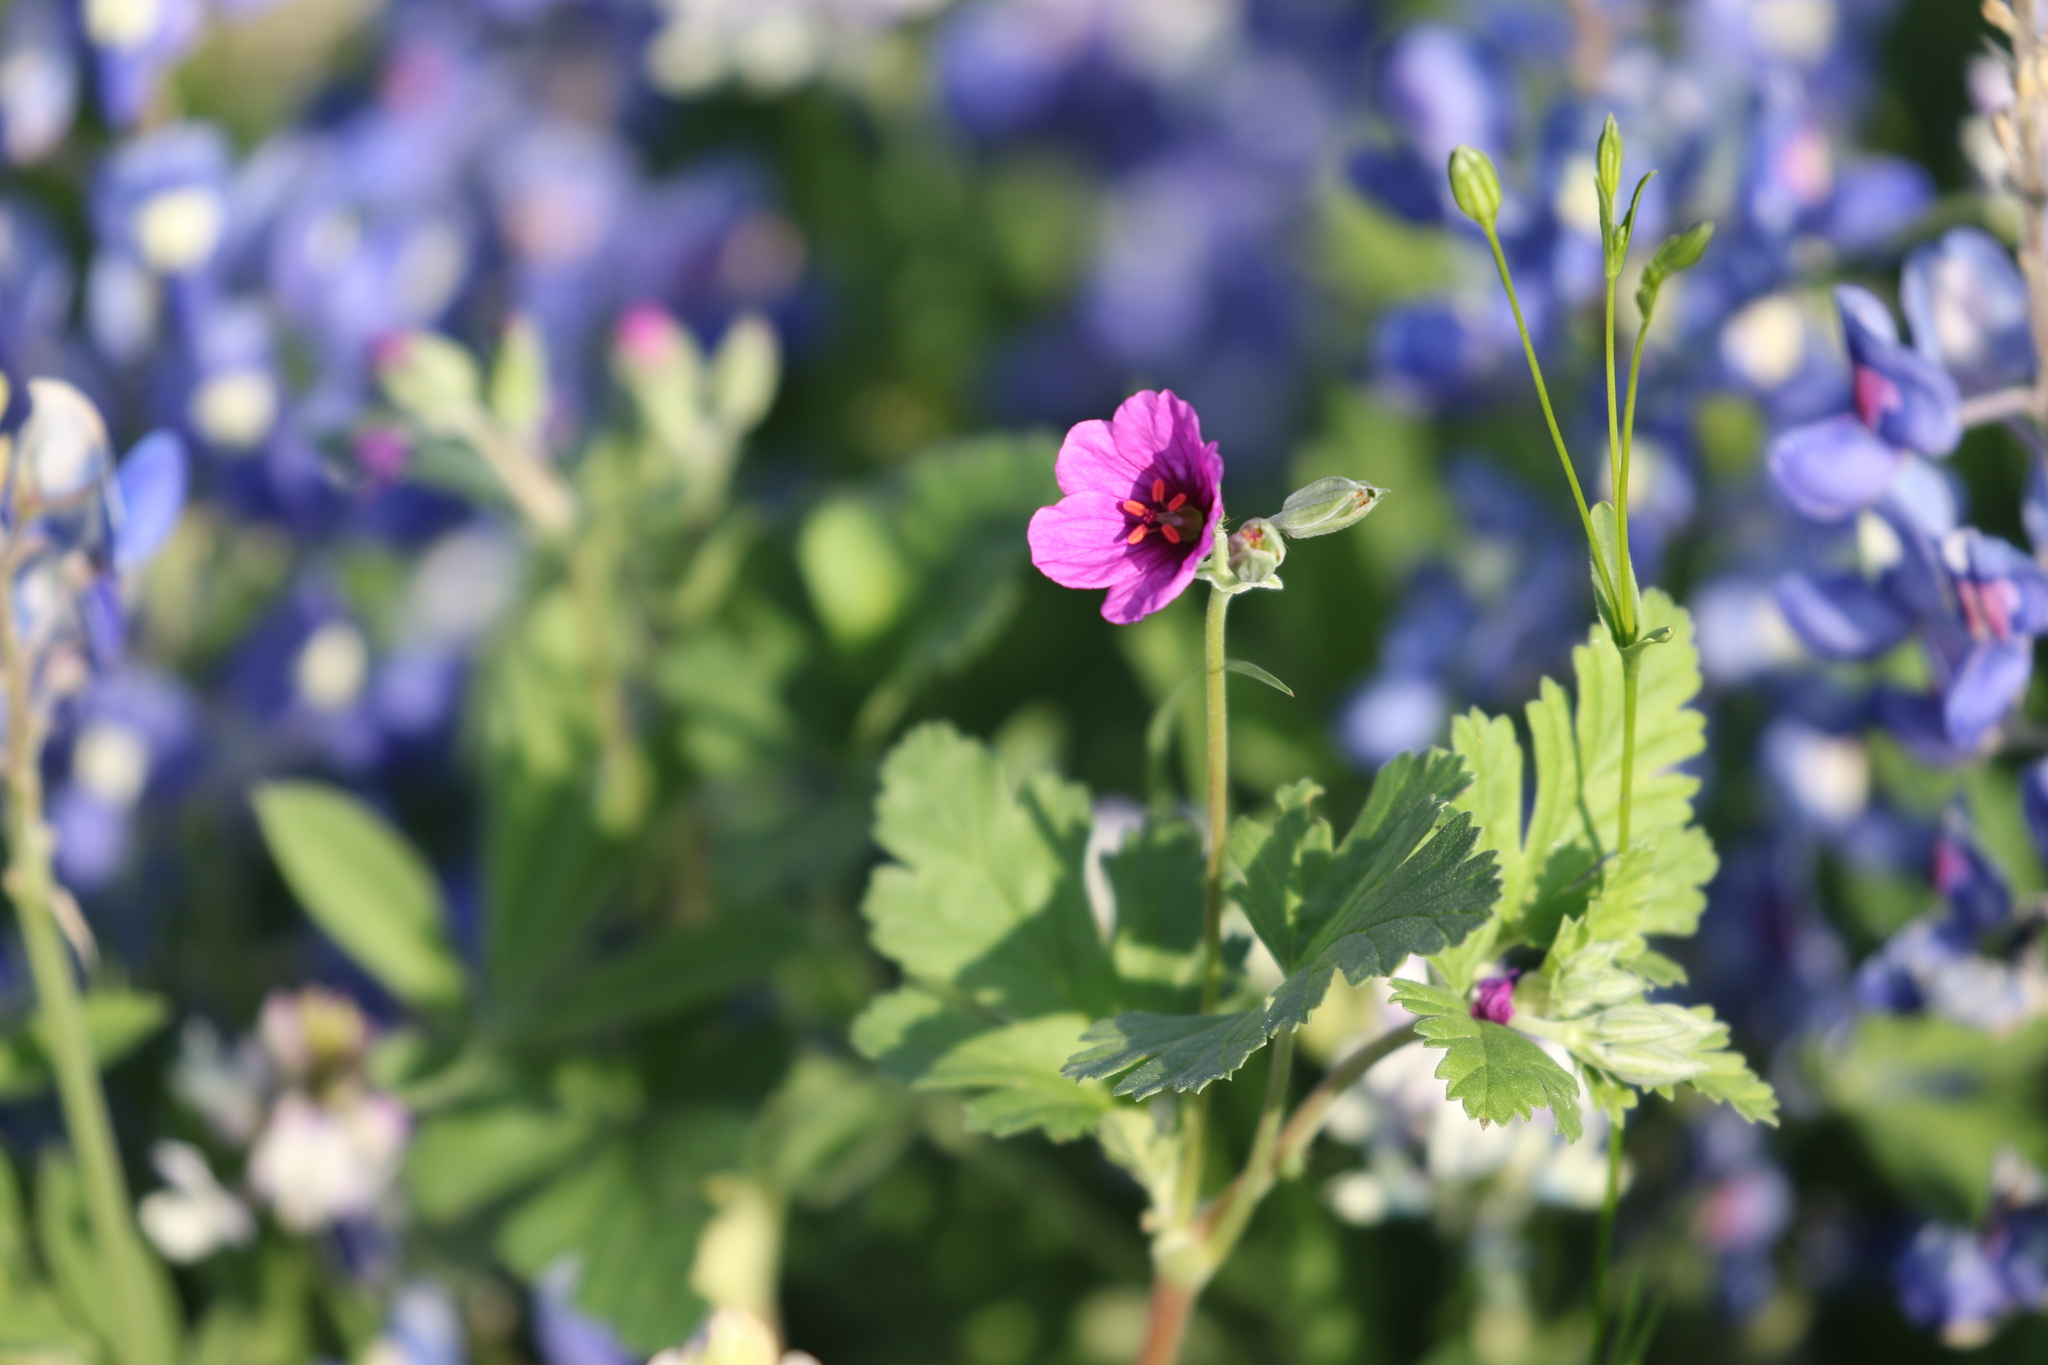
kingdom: Plantae
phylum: Tracheophyta
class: Magnoliopsida
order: Geraniales
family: Geraniaceae
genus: Erodium
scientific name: Erodium texanum
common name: Texas stork's-bill
